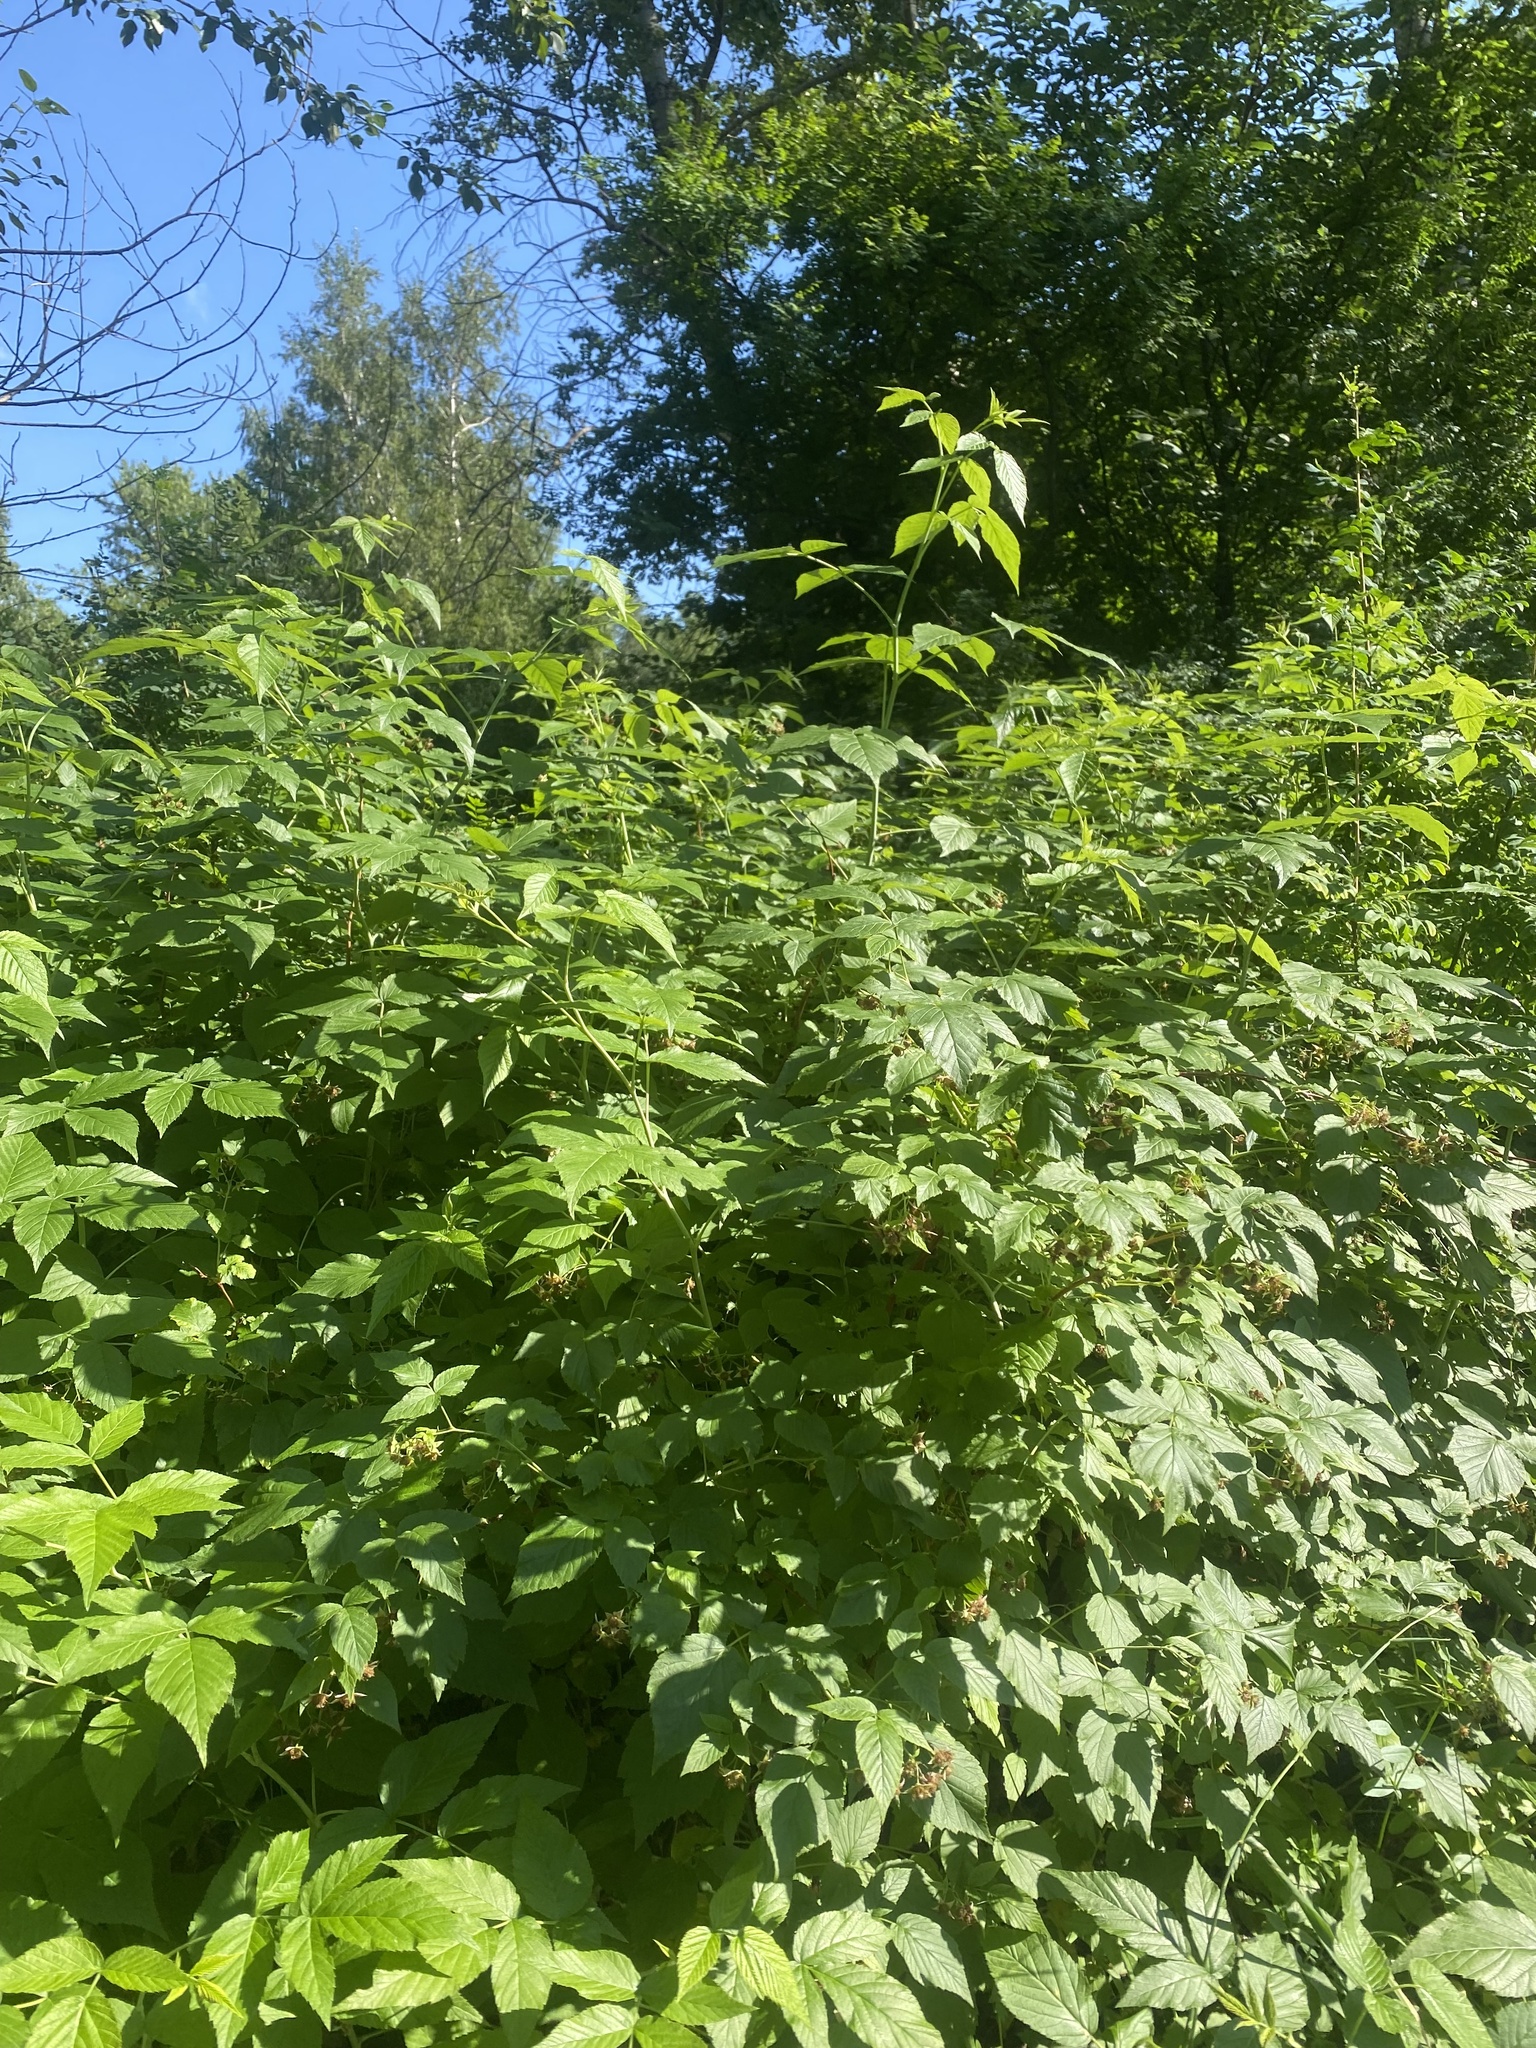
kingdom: Plantae
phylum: Tracheophyta
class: Magnoliopsida
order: Rosales
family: Rosaceae
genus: Rubus
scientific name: Rubus idaeus
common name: Raspberry
